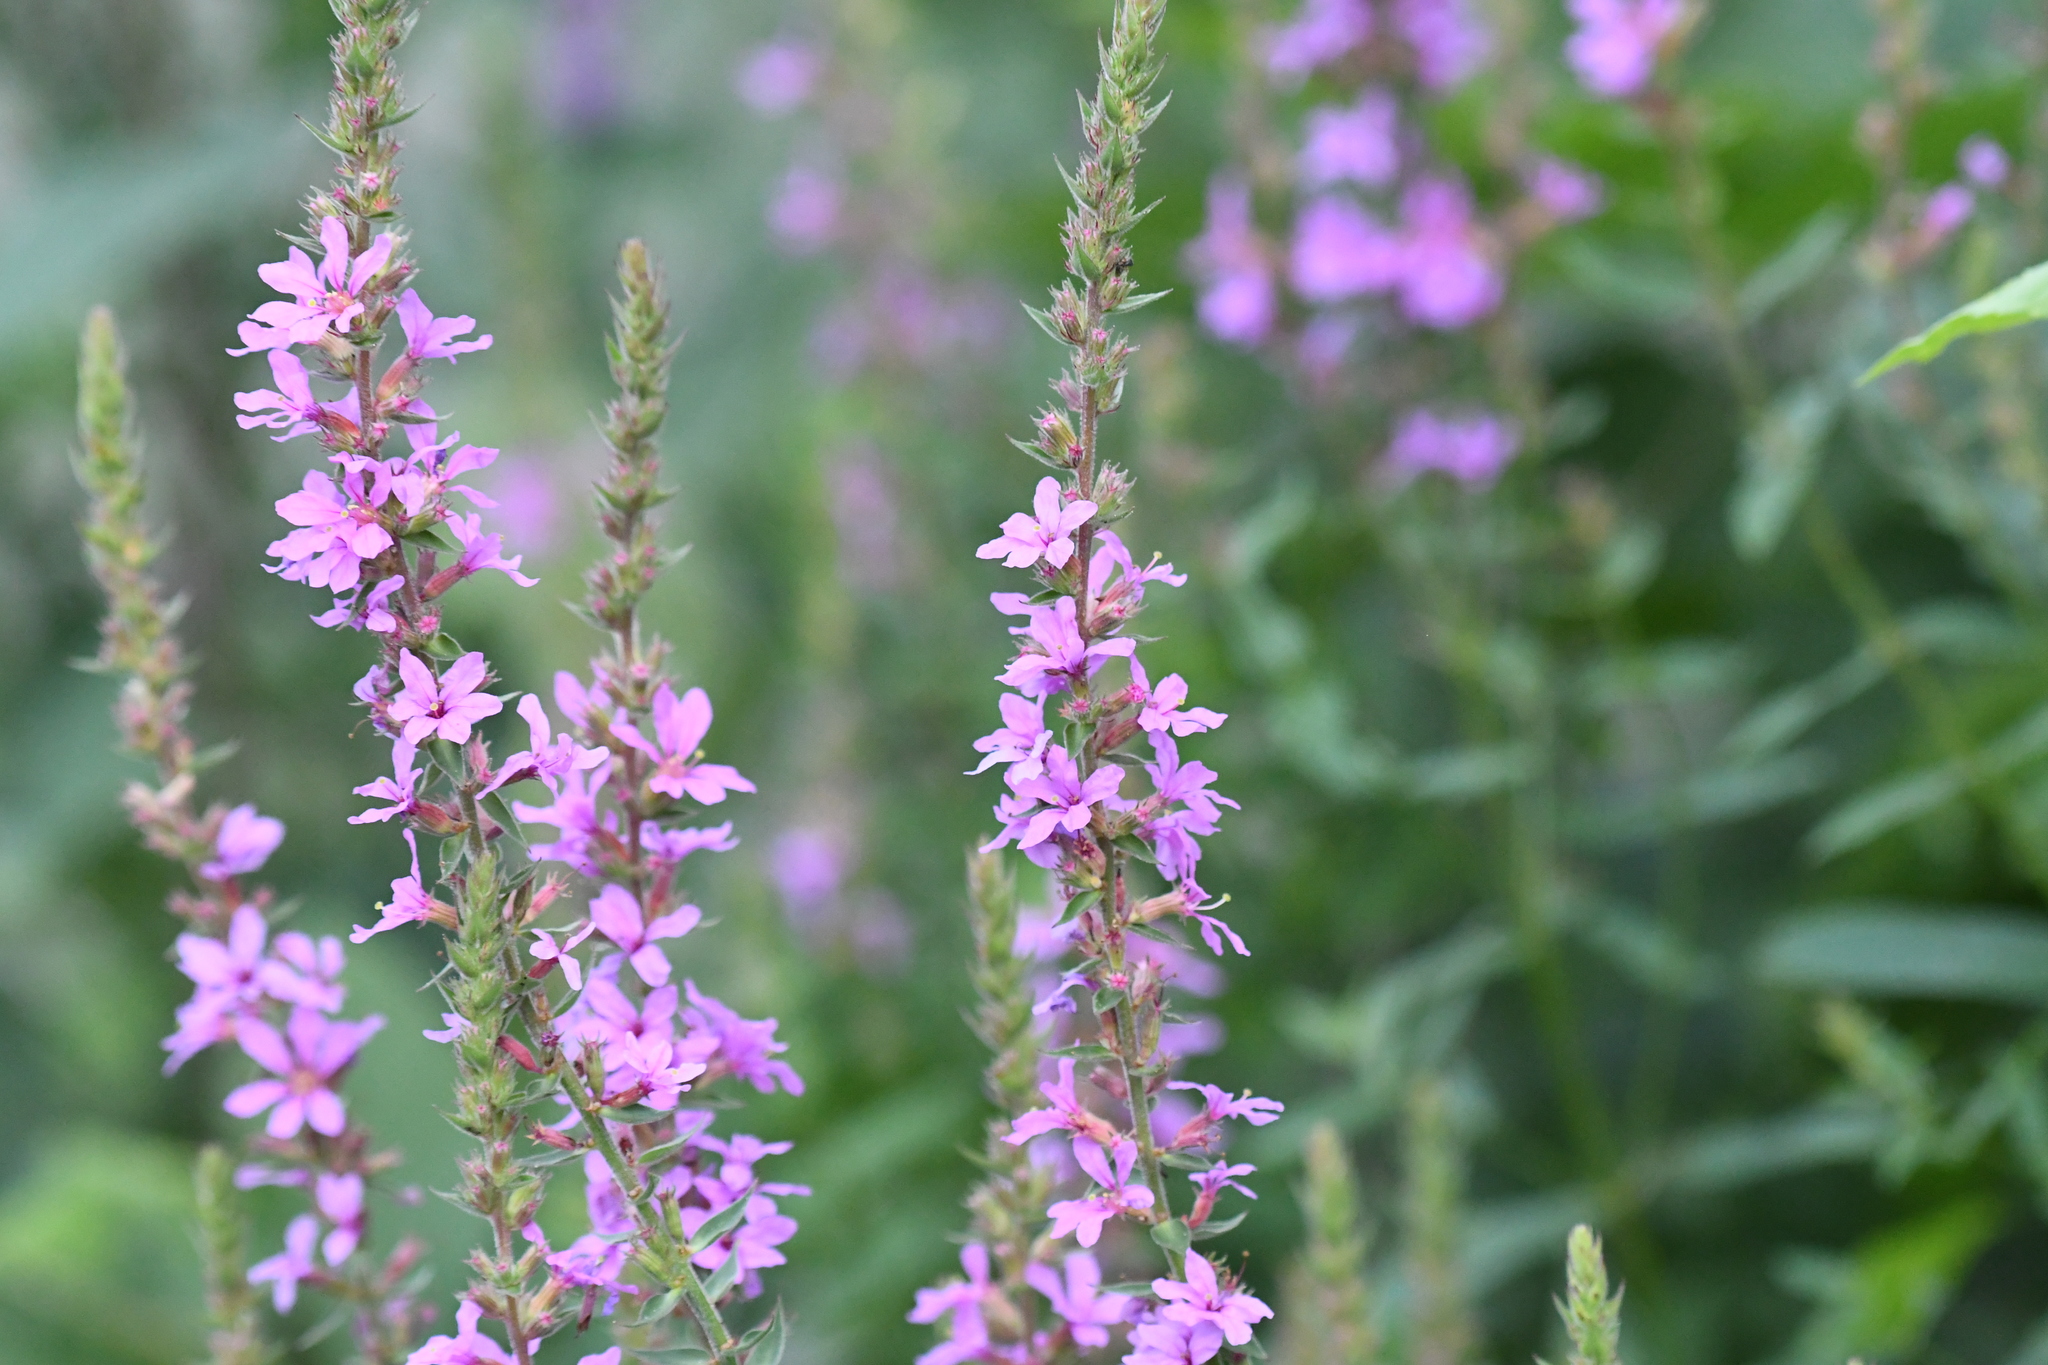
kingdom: Plantae
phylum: Tracheophyta
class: Magnoliopsida
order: Myrtales
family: Lythraceae
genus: Lythrum
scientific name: Lythrum salicaria
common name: Purple loosestrife
